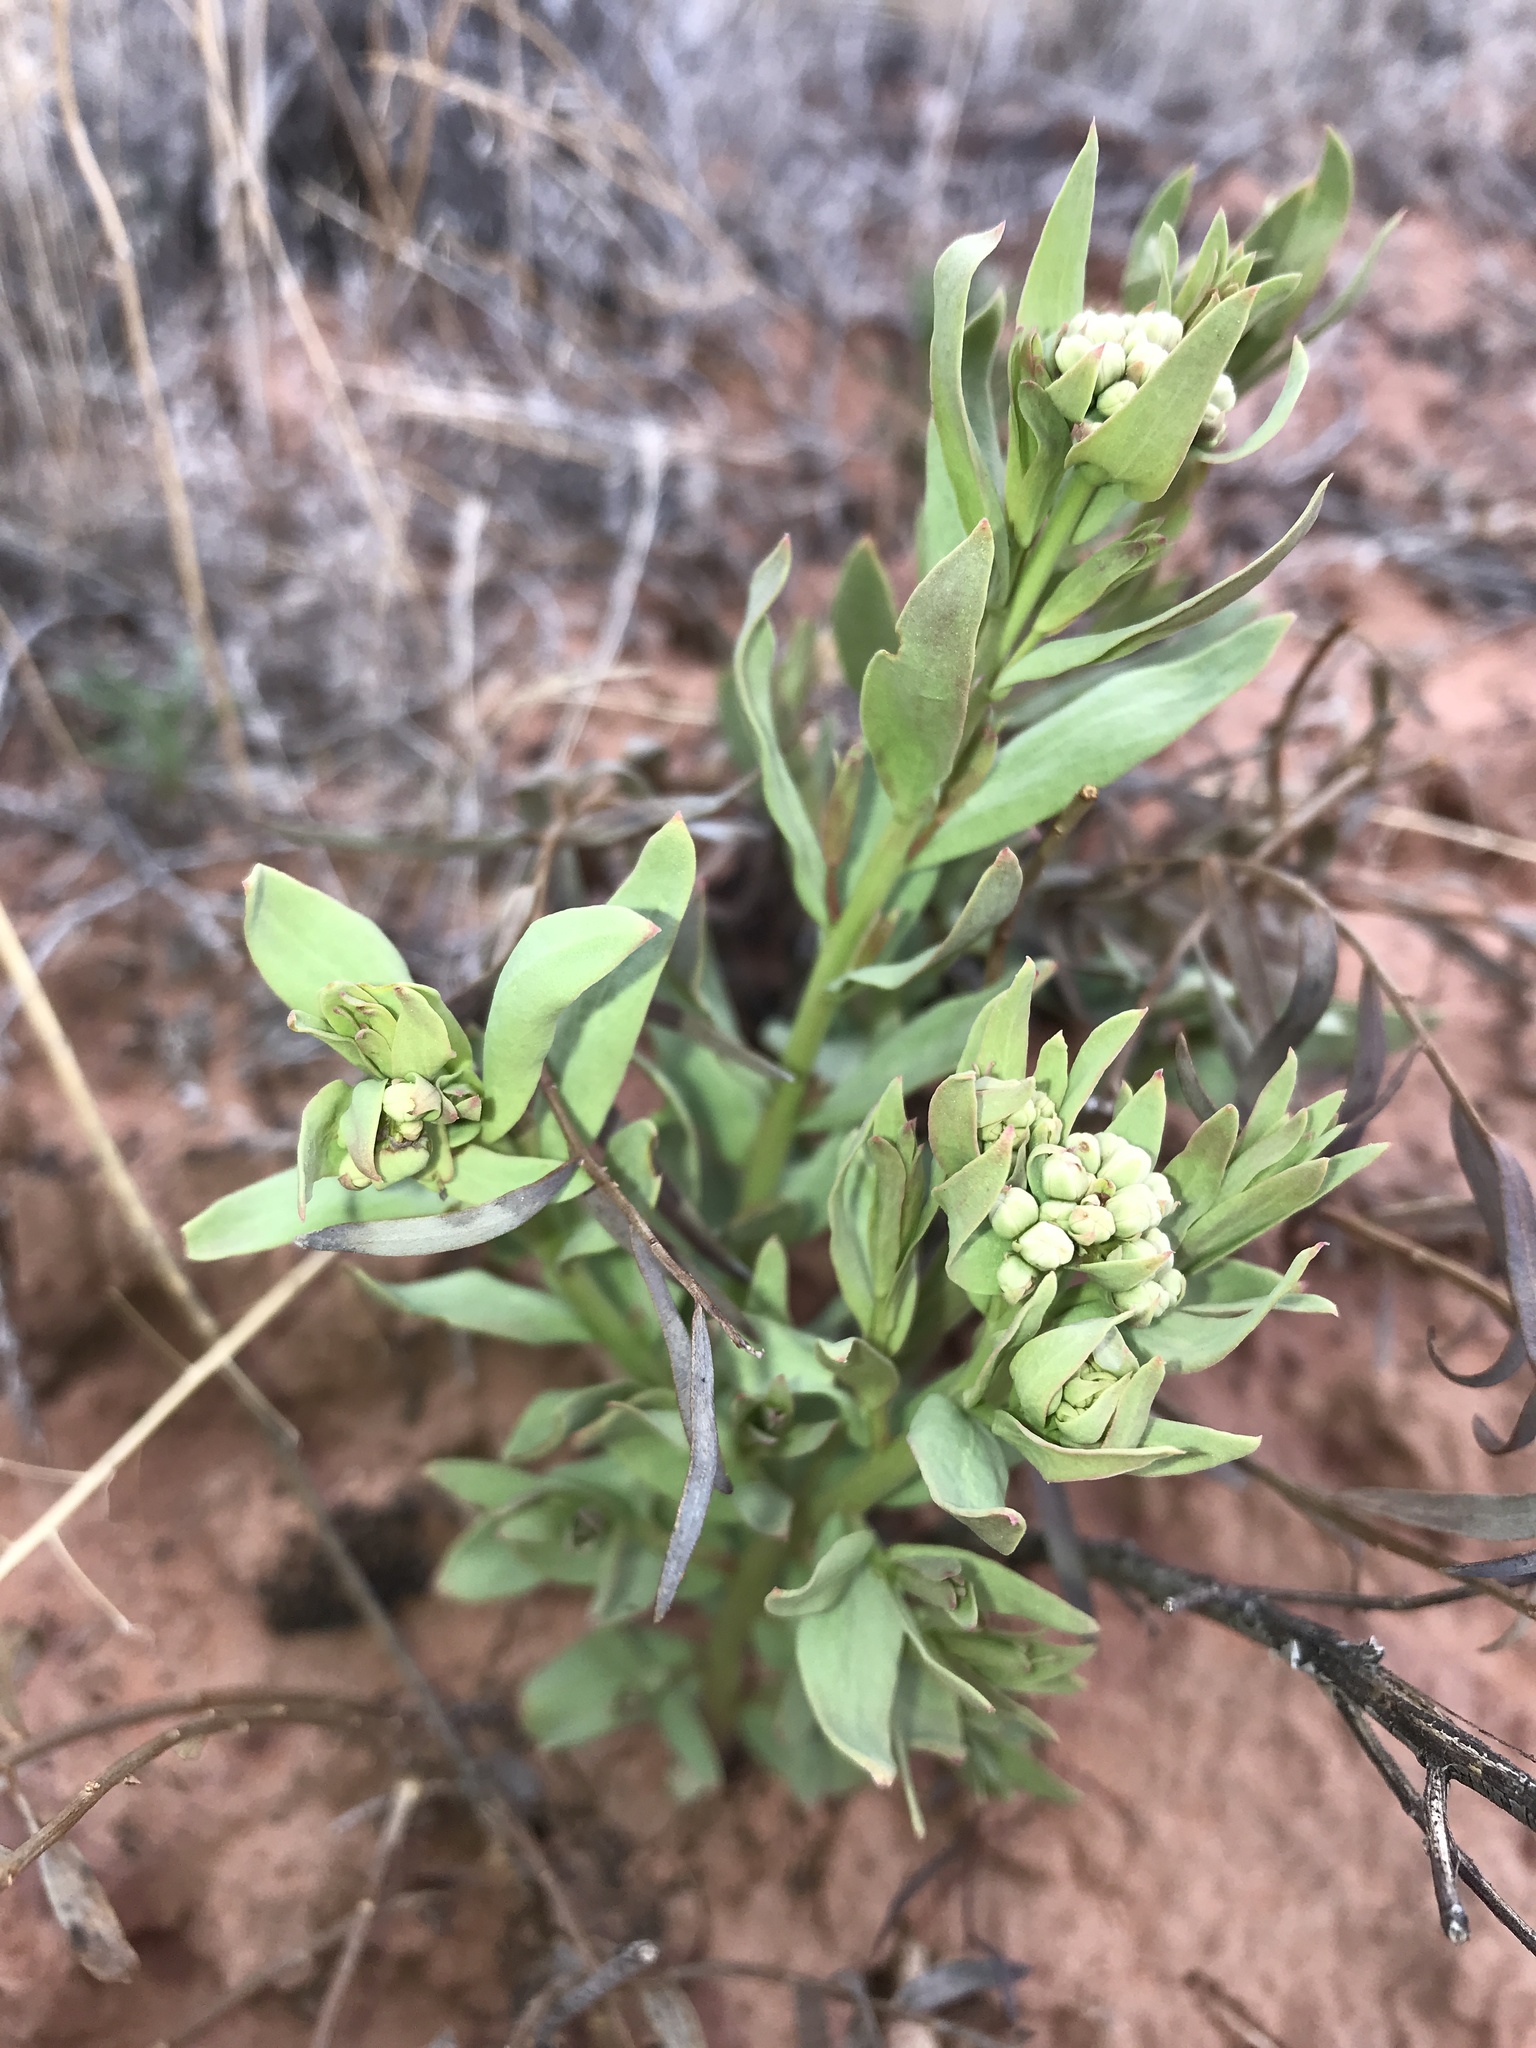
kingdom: Plantae
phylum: Tracheophyta
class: Magnoliopsida
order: Santalales
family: Comandraceae
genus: Comandra
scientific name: Comandra umbellata
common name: Bastard toadflax
